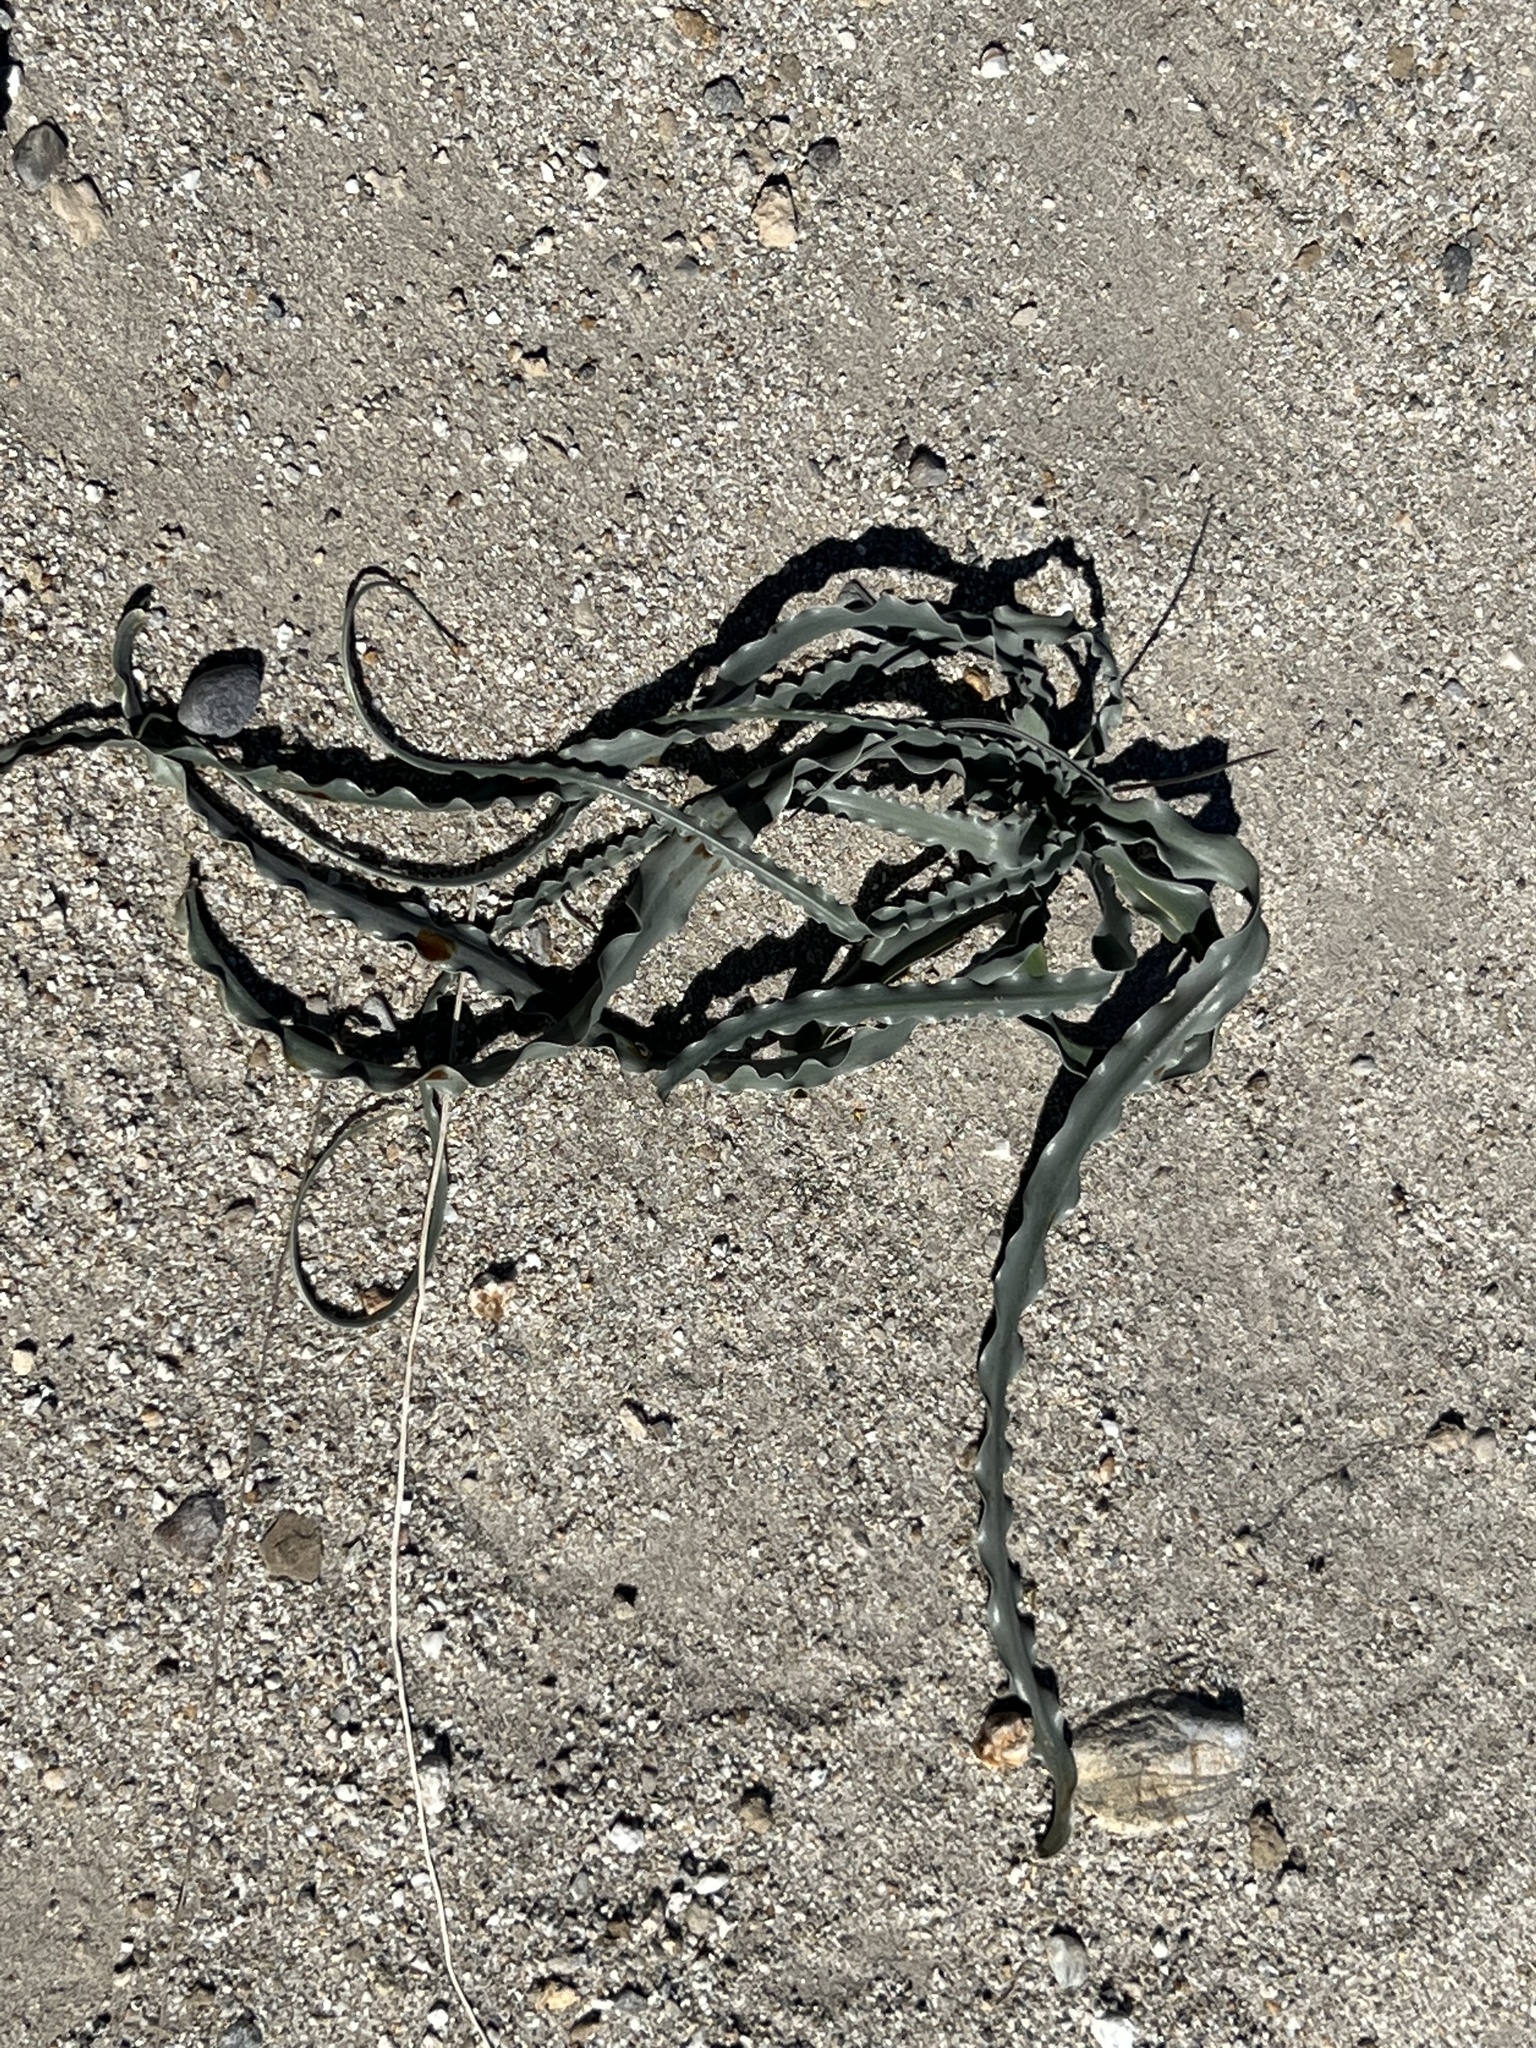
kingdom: Plantae
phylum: Tracheophyta
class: Liliopsida
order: Asparagales
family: Asparagaceae
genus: Hesperocallis
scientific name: Hesperocallis undulata
